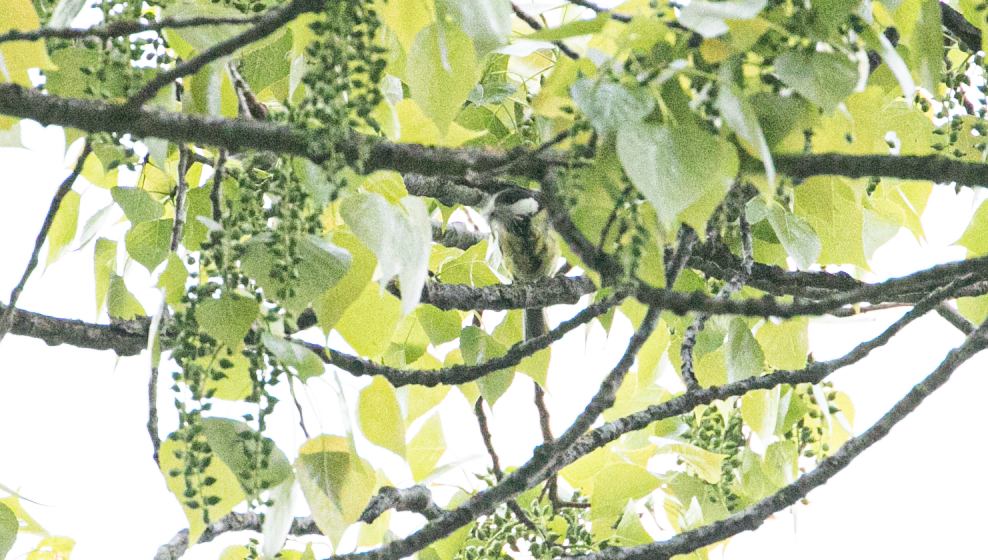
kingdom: Animalia
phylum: Chordata
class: Aves
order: Passeriformes
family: Paridae
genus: Parus
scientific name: Parus major
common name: Great tit
